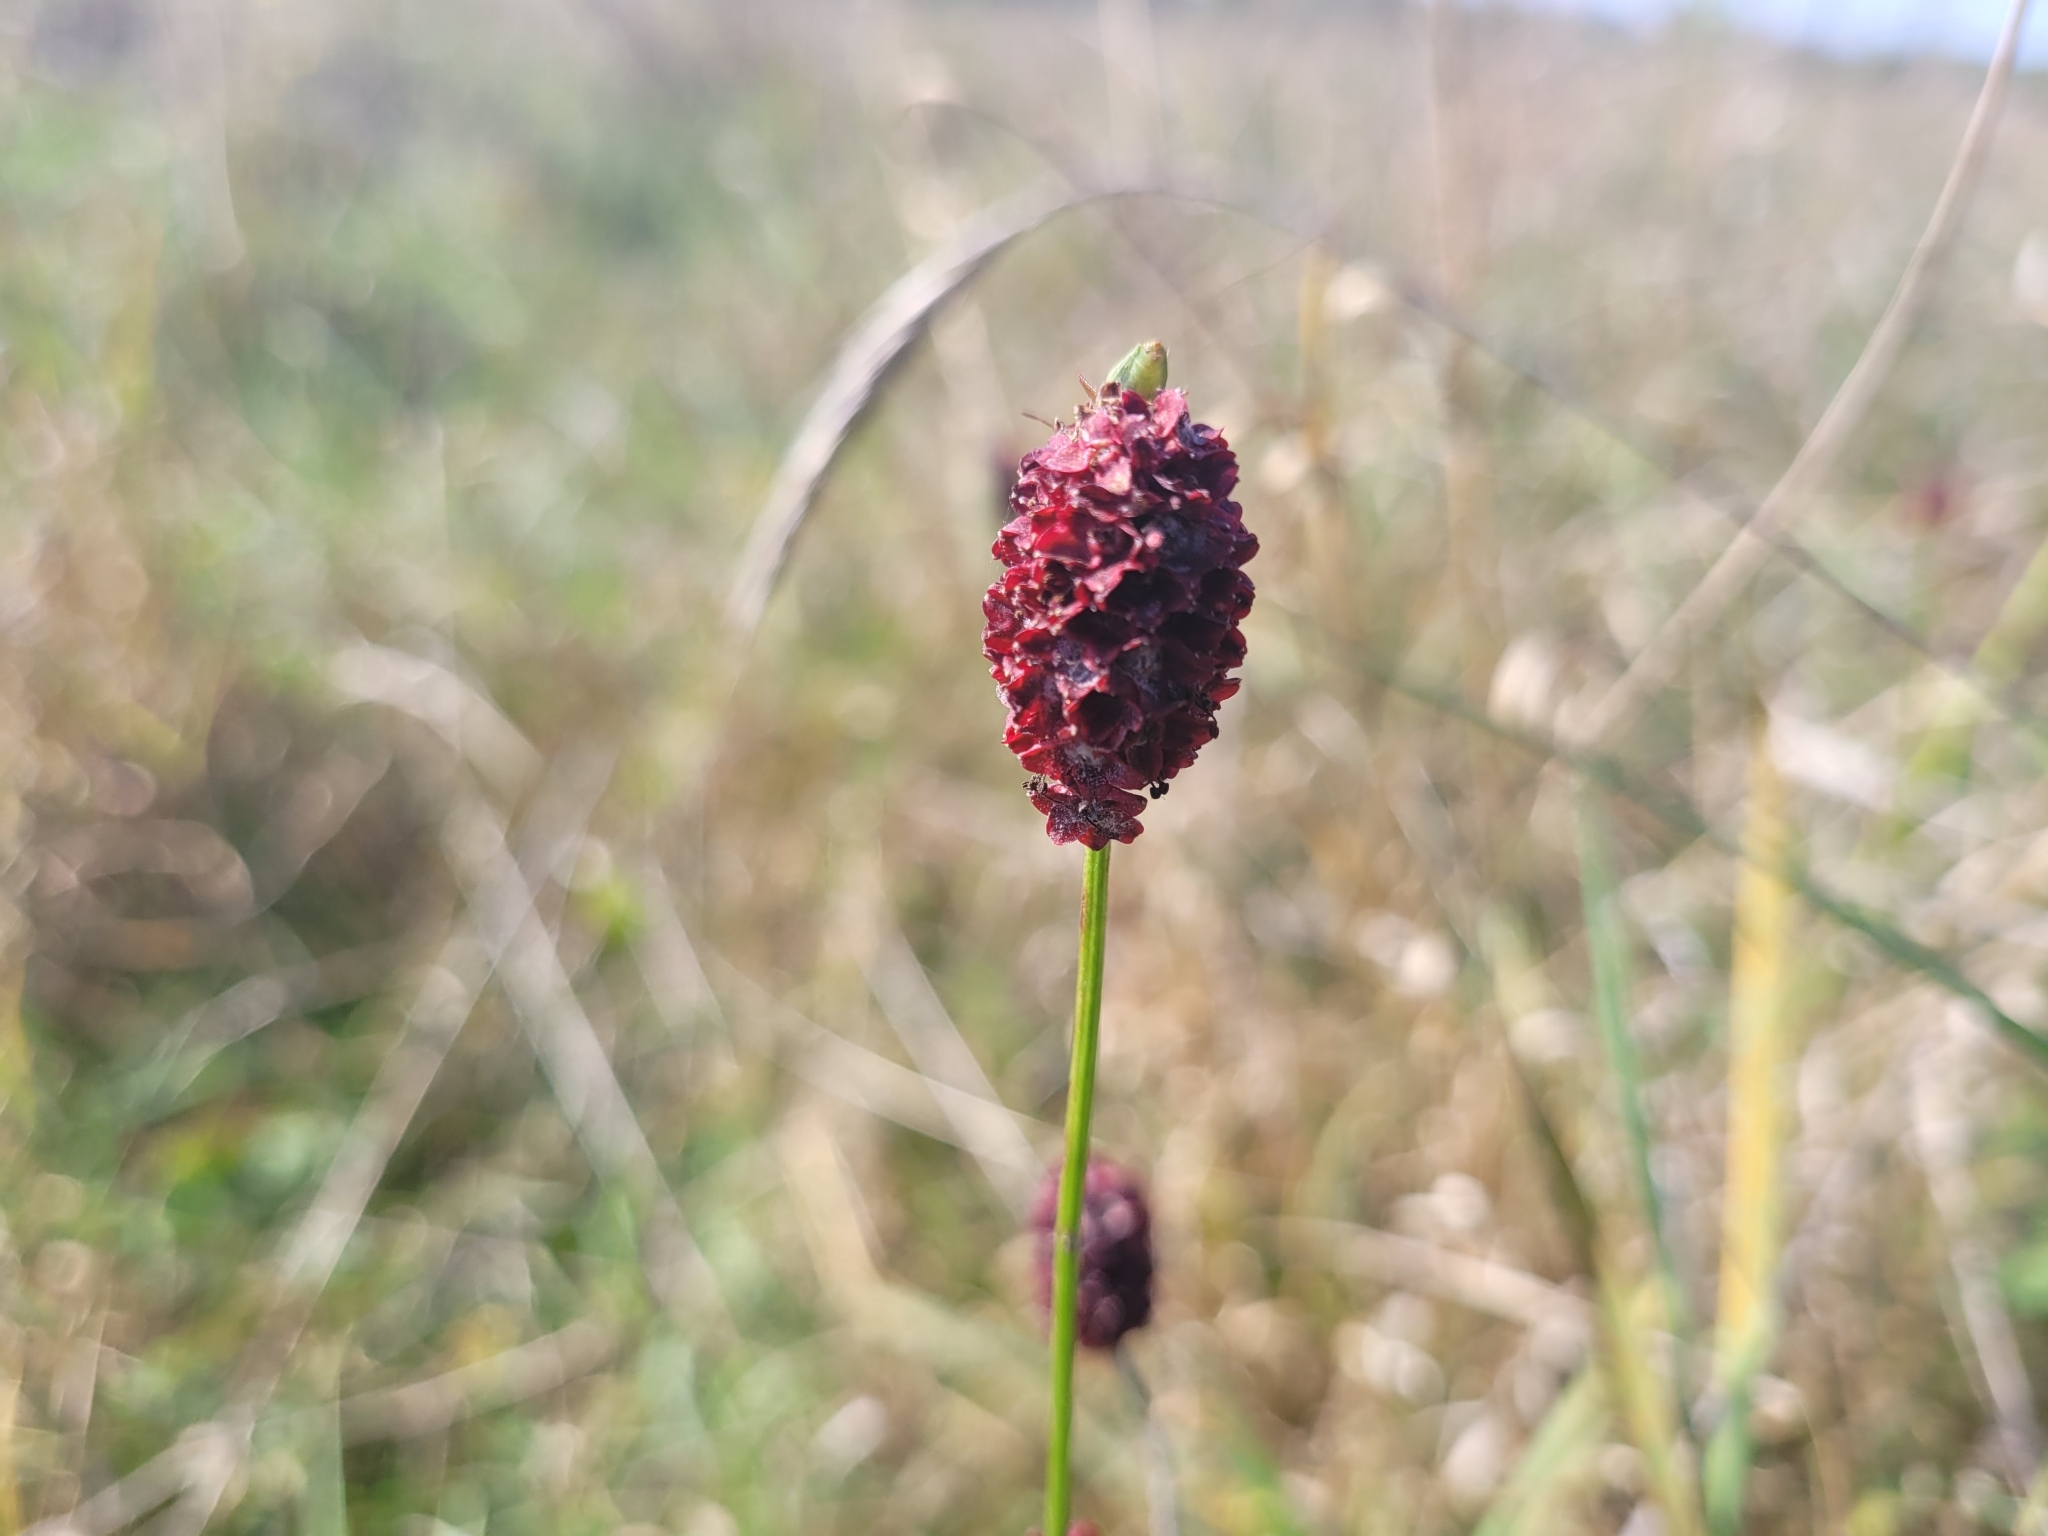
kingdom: Plantae
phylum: Tracheophyta
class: Magnoliopsida
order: Rosales
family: Rosaceae
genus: Sanguisorba
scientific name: Sanguisorba officinalis
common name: Great burnet
